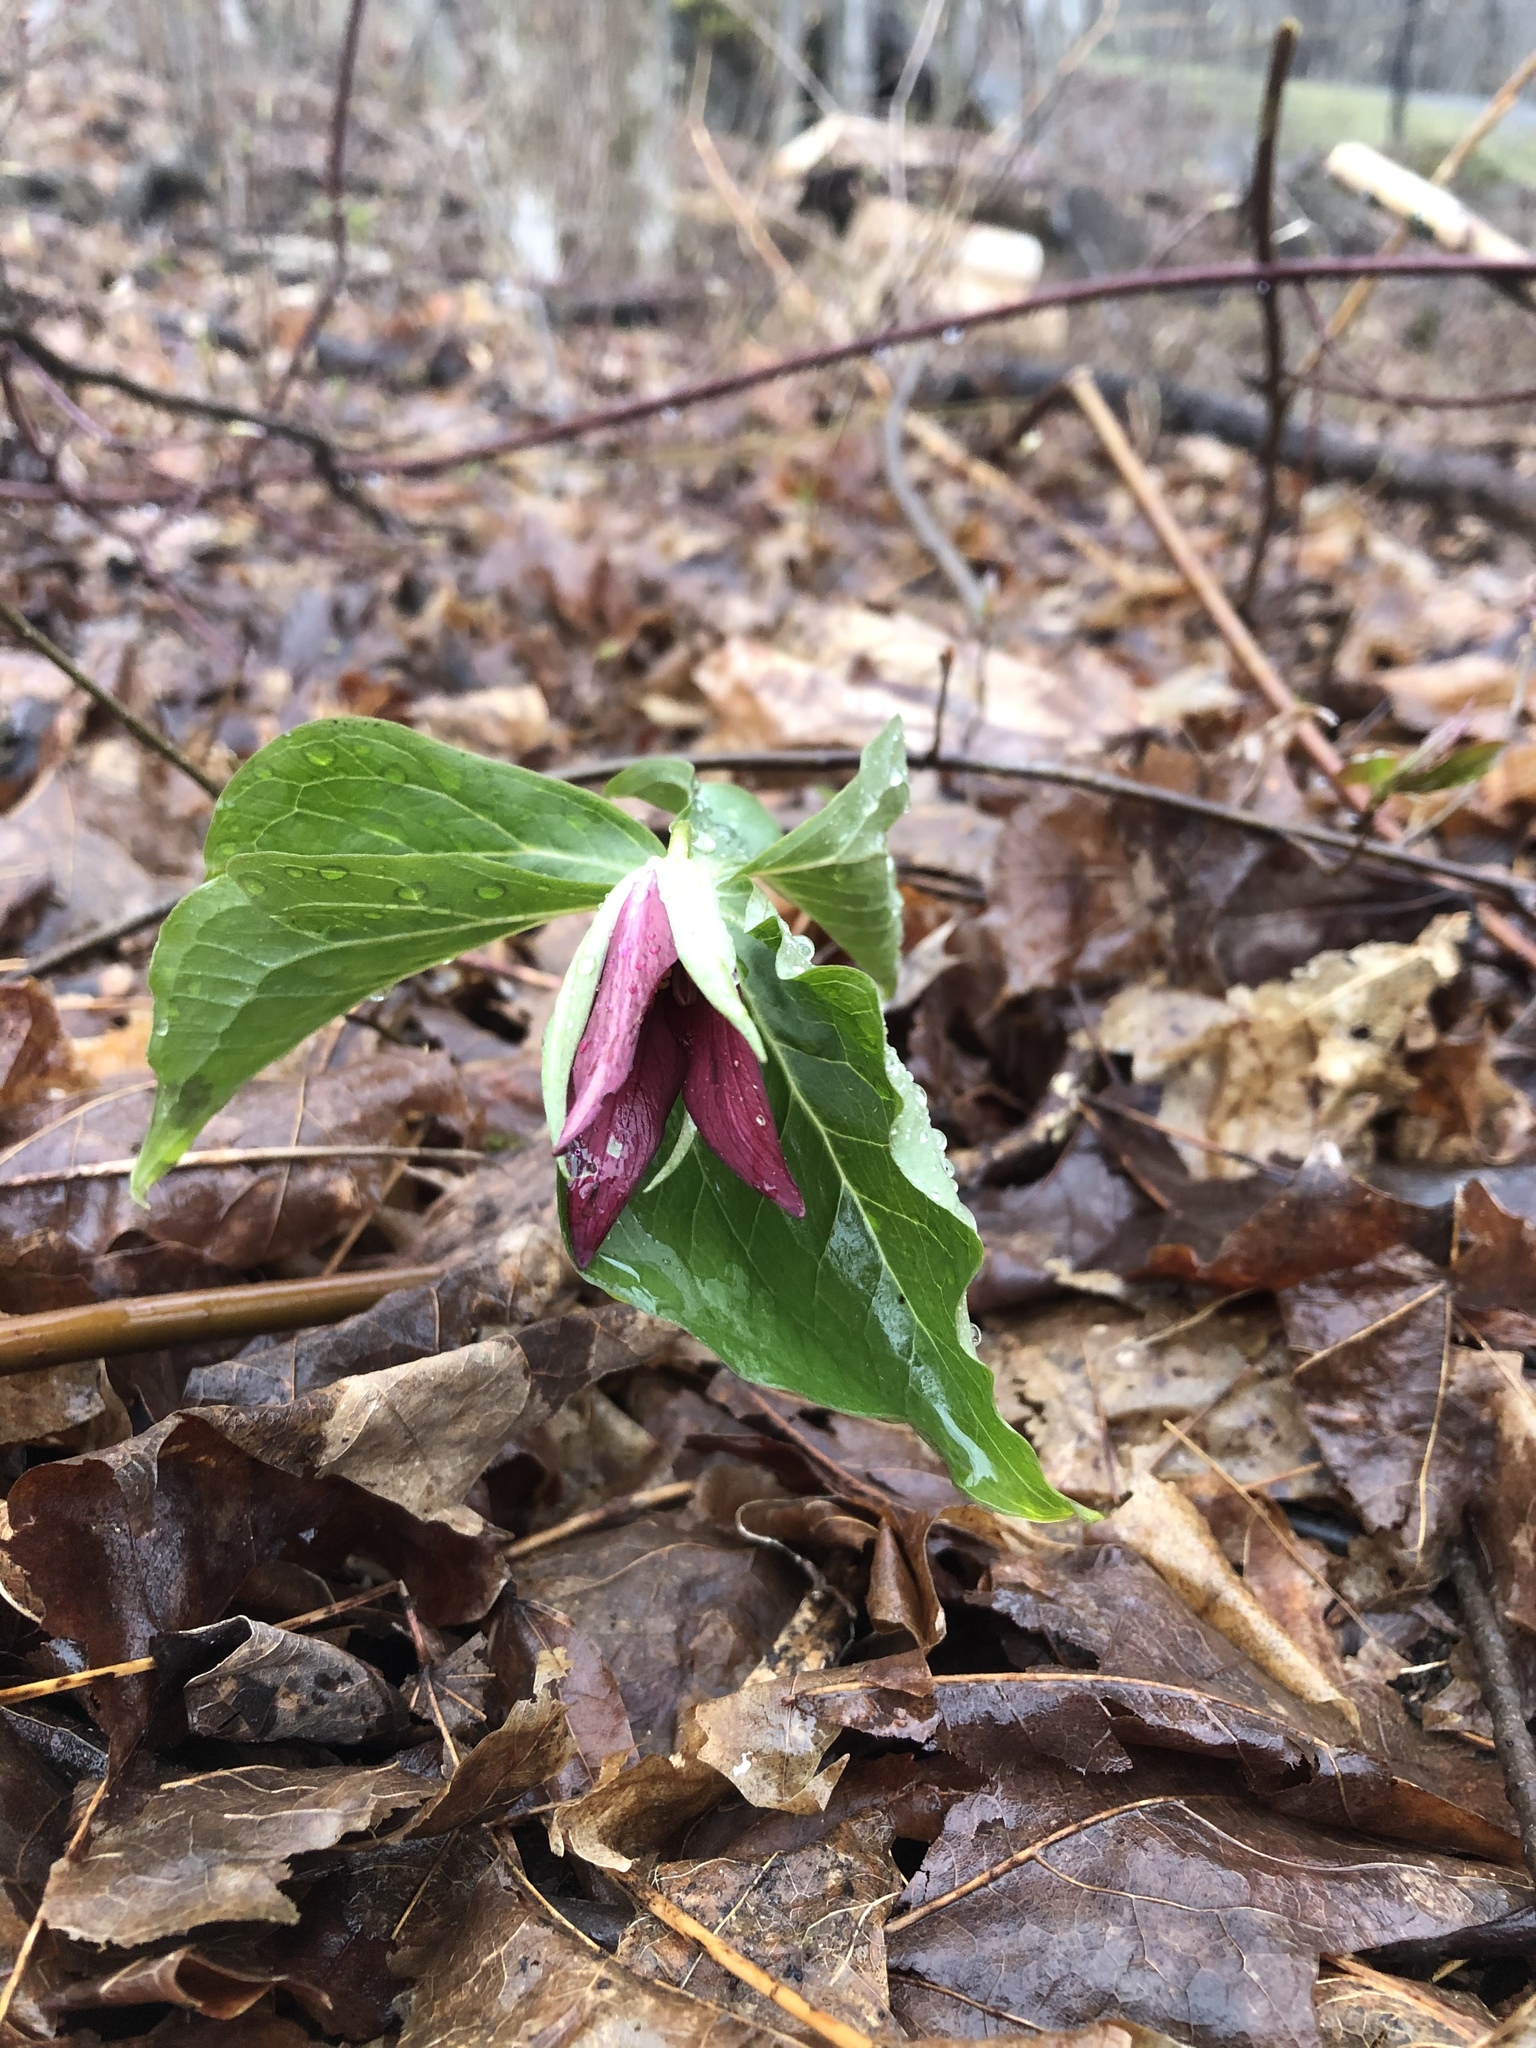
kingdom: Plantae
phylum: Tracheophyta
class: Liliopsida
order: Liliales
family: Melanthiaceae
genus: Trillium
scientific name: Trillium erectum
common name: Purple trillium
